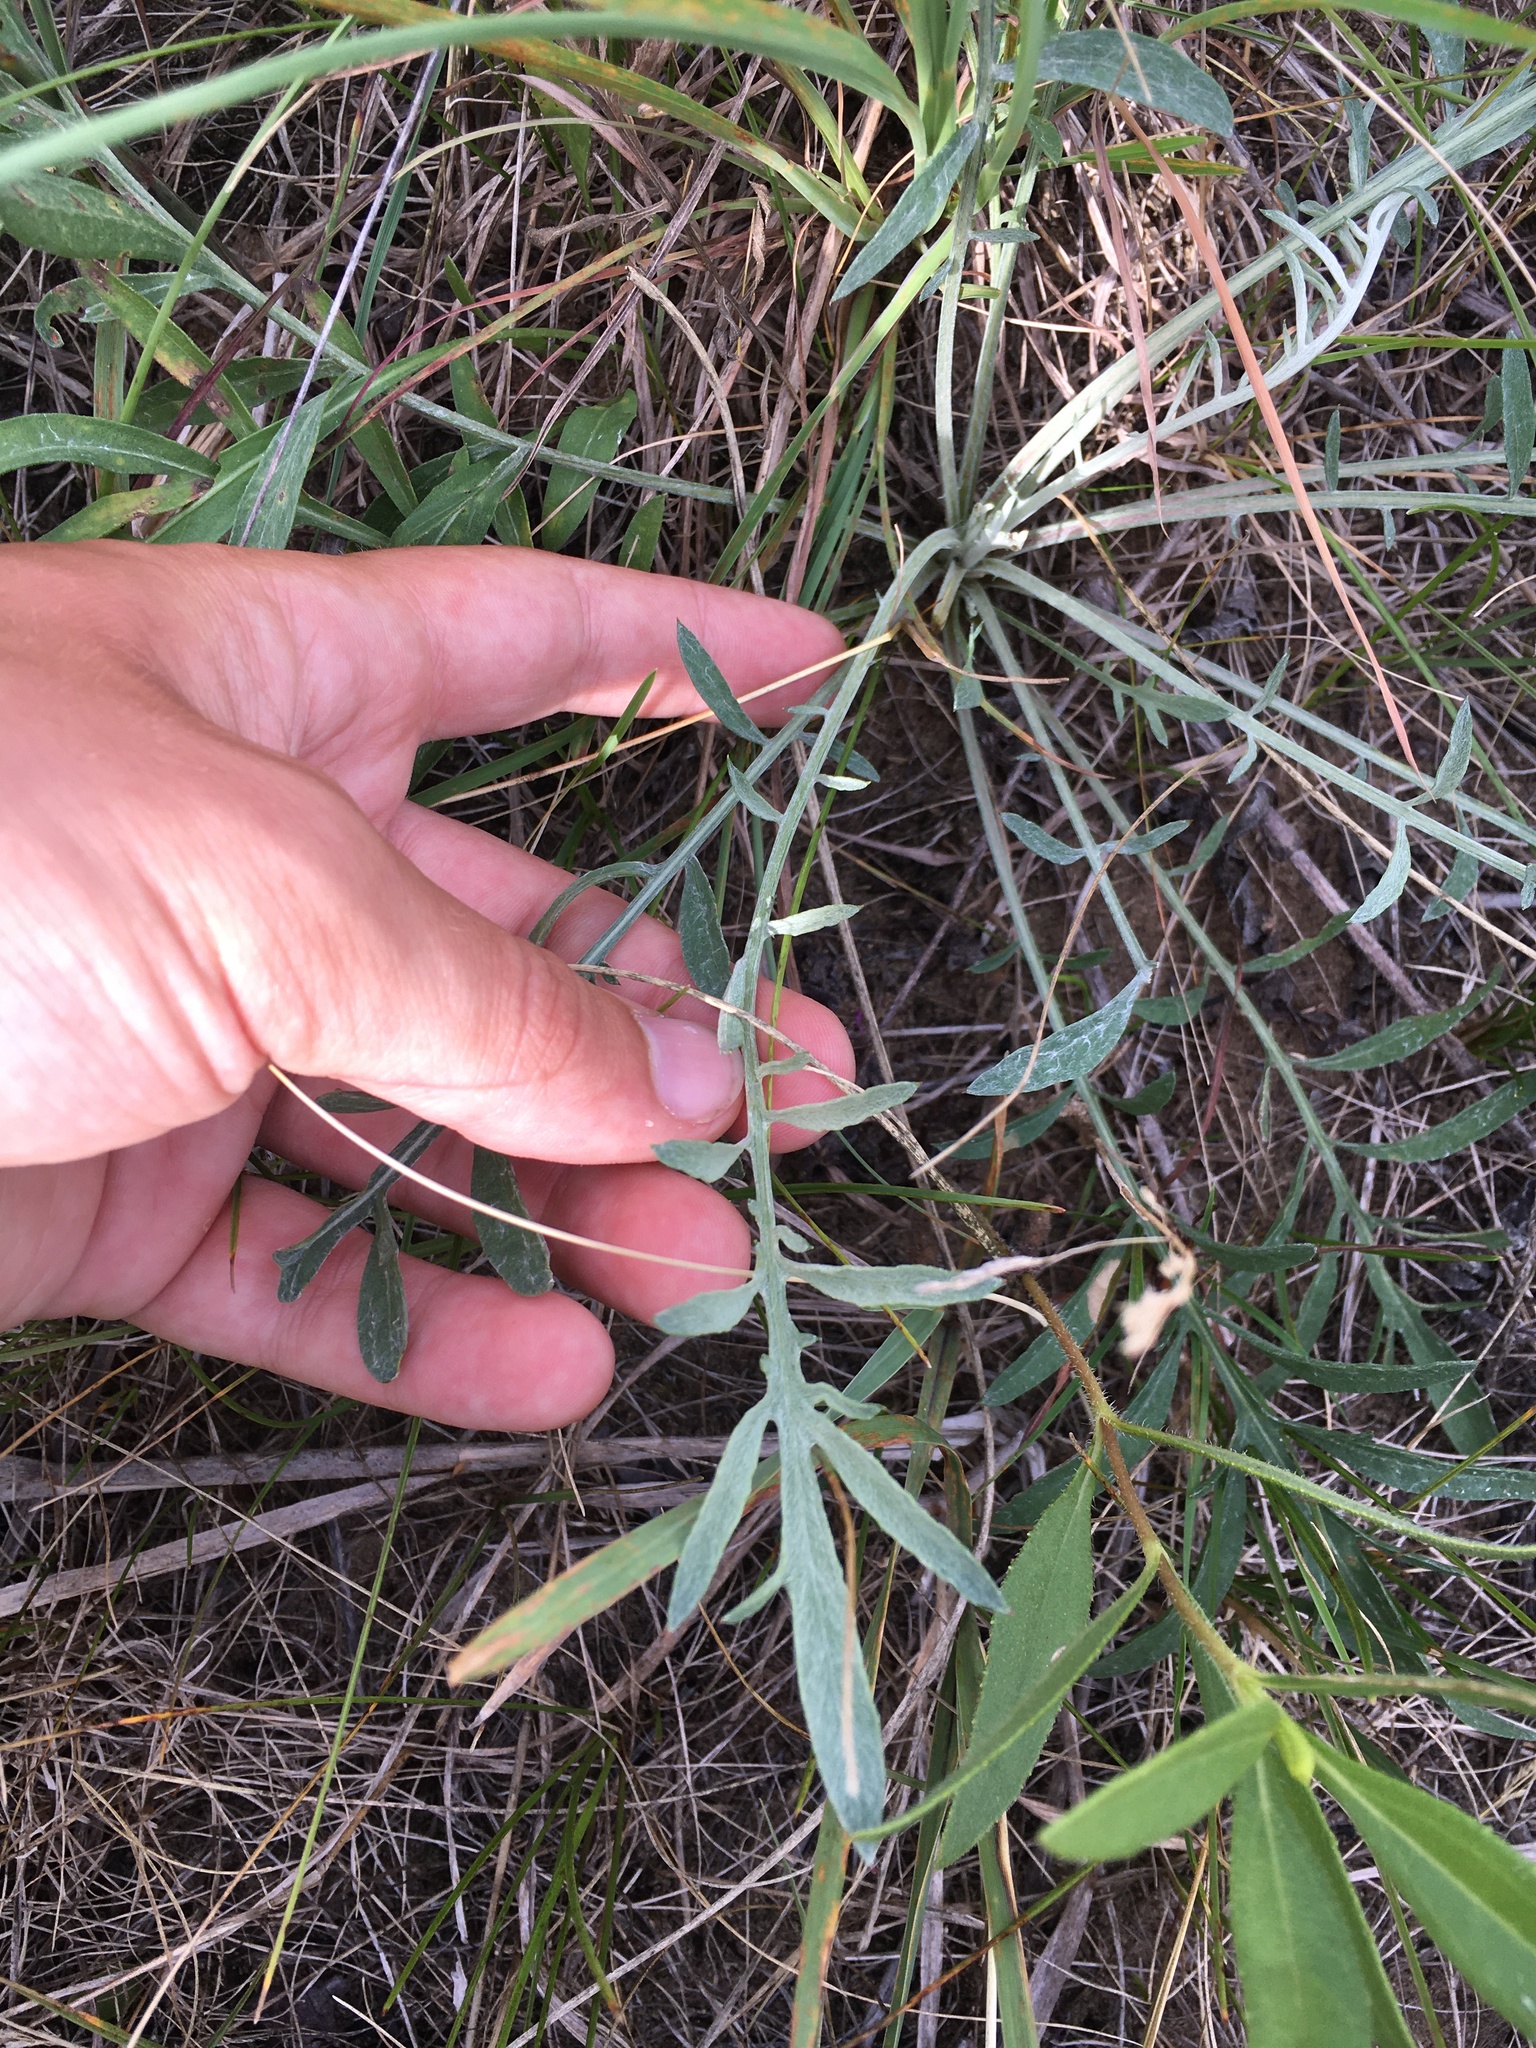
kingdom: Plantae
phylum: Tracheophyta
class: Magnoliopsida
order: Asterales
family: Asteraceae
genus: Centaurea
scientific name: Centaurea stoebe
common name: Spotted knapweed
